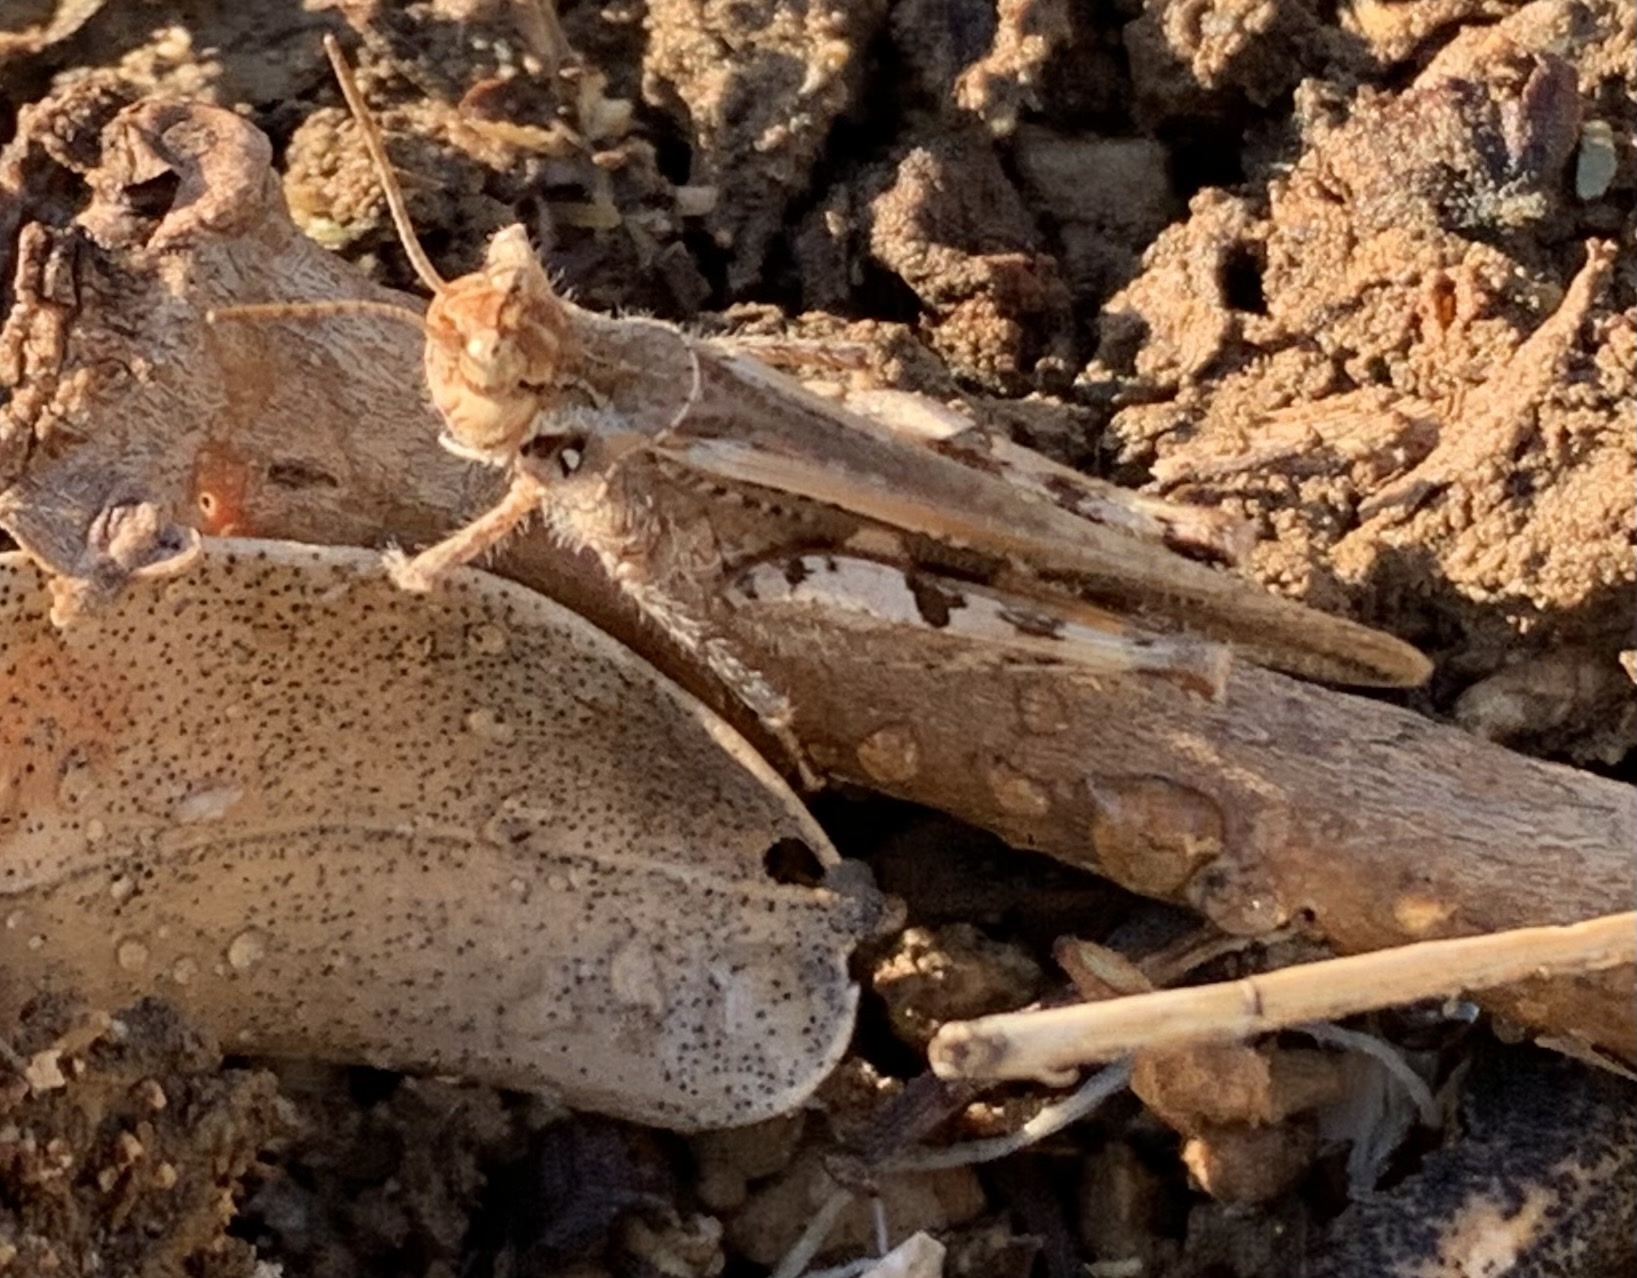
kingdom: Animalia
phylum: Arthropoda
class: Insecta
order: Orthoptera
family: Acrididae
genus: Acrotylus
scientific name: Acrotylus patruelis
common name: Slender burrowing grasshopper
